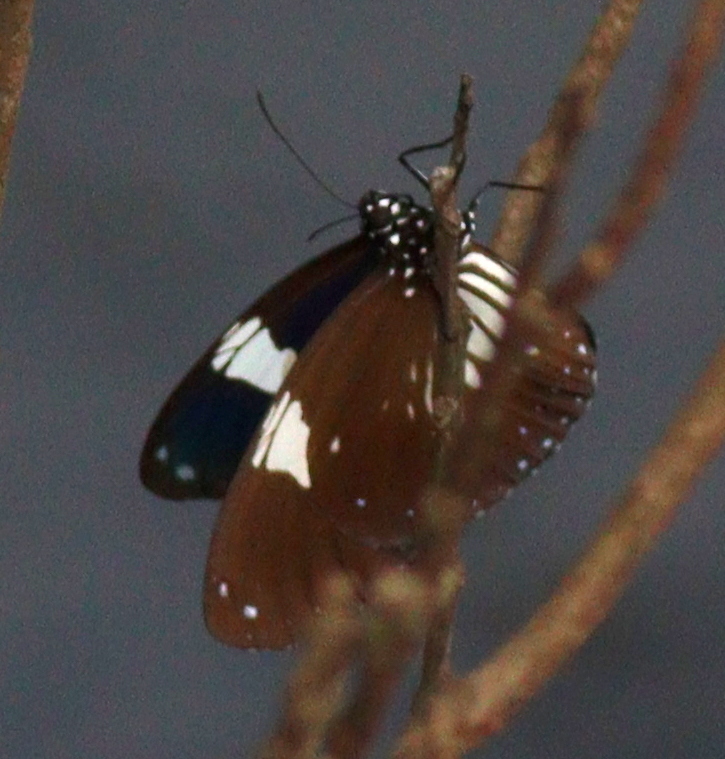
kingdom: Animalia
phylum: Arthropoda
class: Insecta
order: Lepidoptera
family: Nymphalidae
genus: Euploea
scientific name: Euploea radamanthus
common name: Magpie crow butterfly
